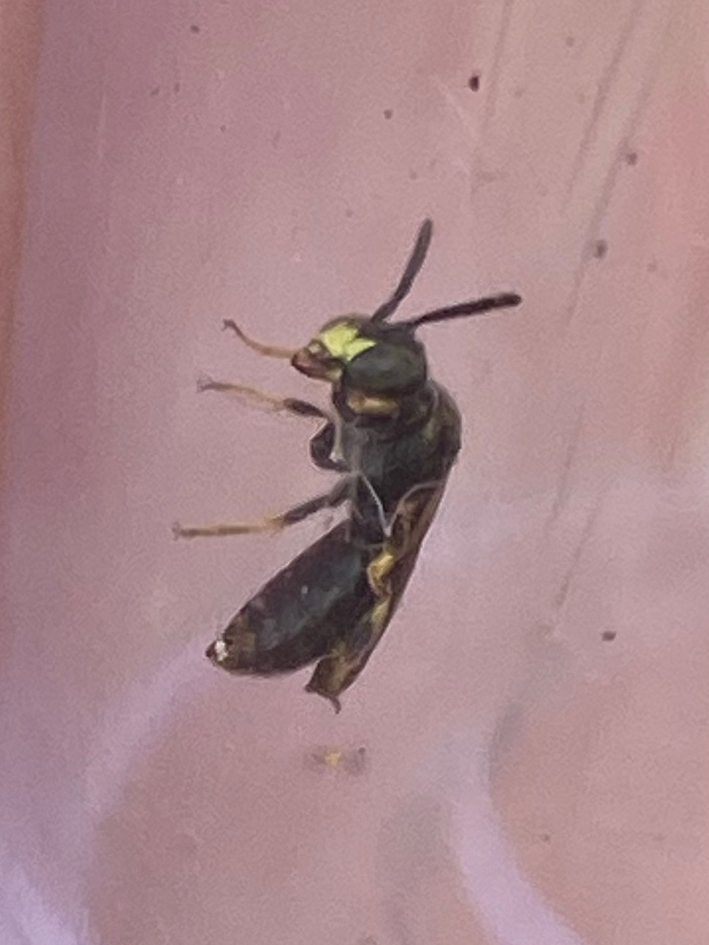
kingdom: Animalia
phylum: Arthropoda
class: Insecta
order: Hymenoptera
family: Andrenidae
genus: Pseudopanurgus
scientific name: Pseudopanurgus andrenoides
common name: Eastern bare-miner
